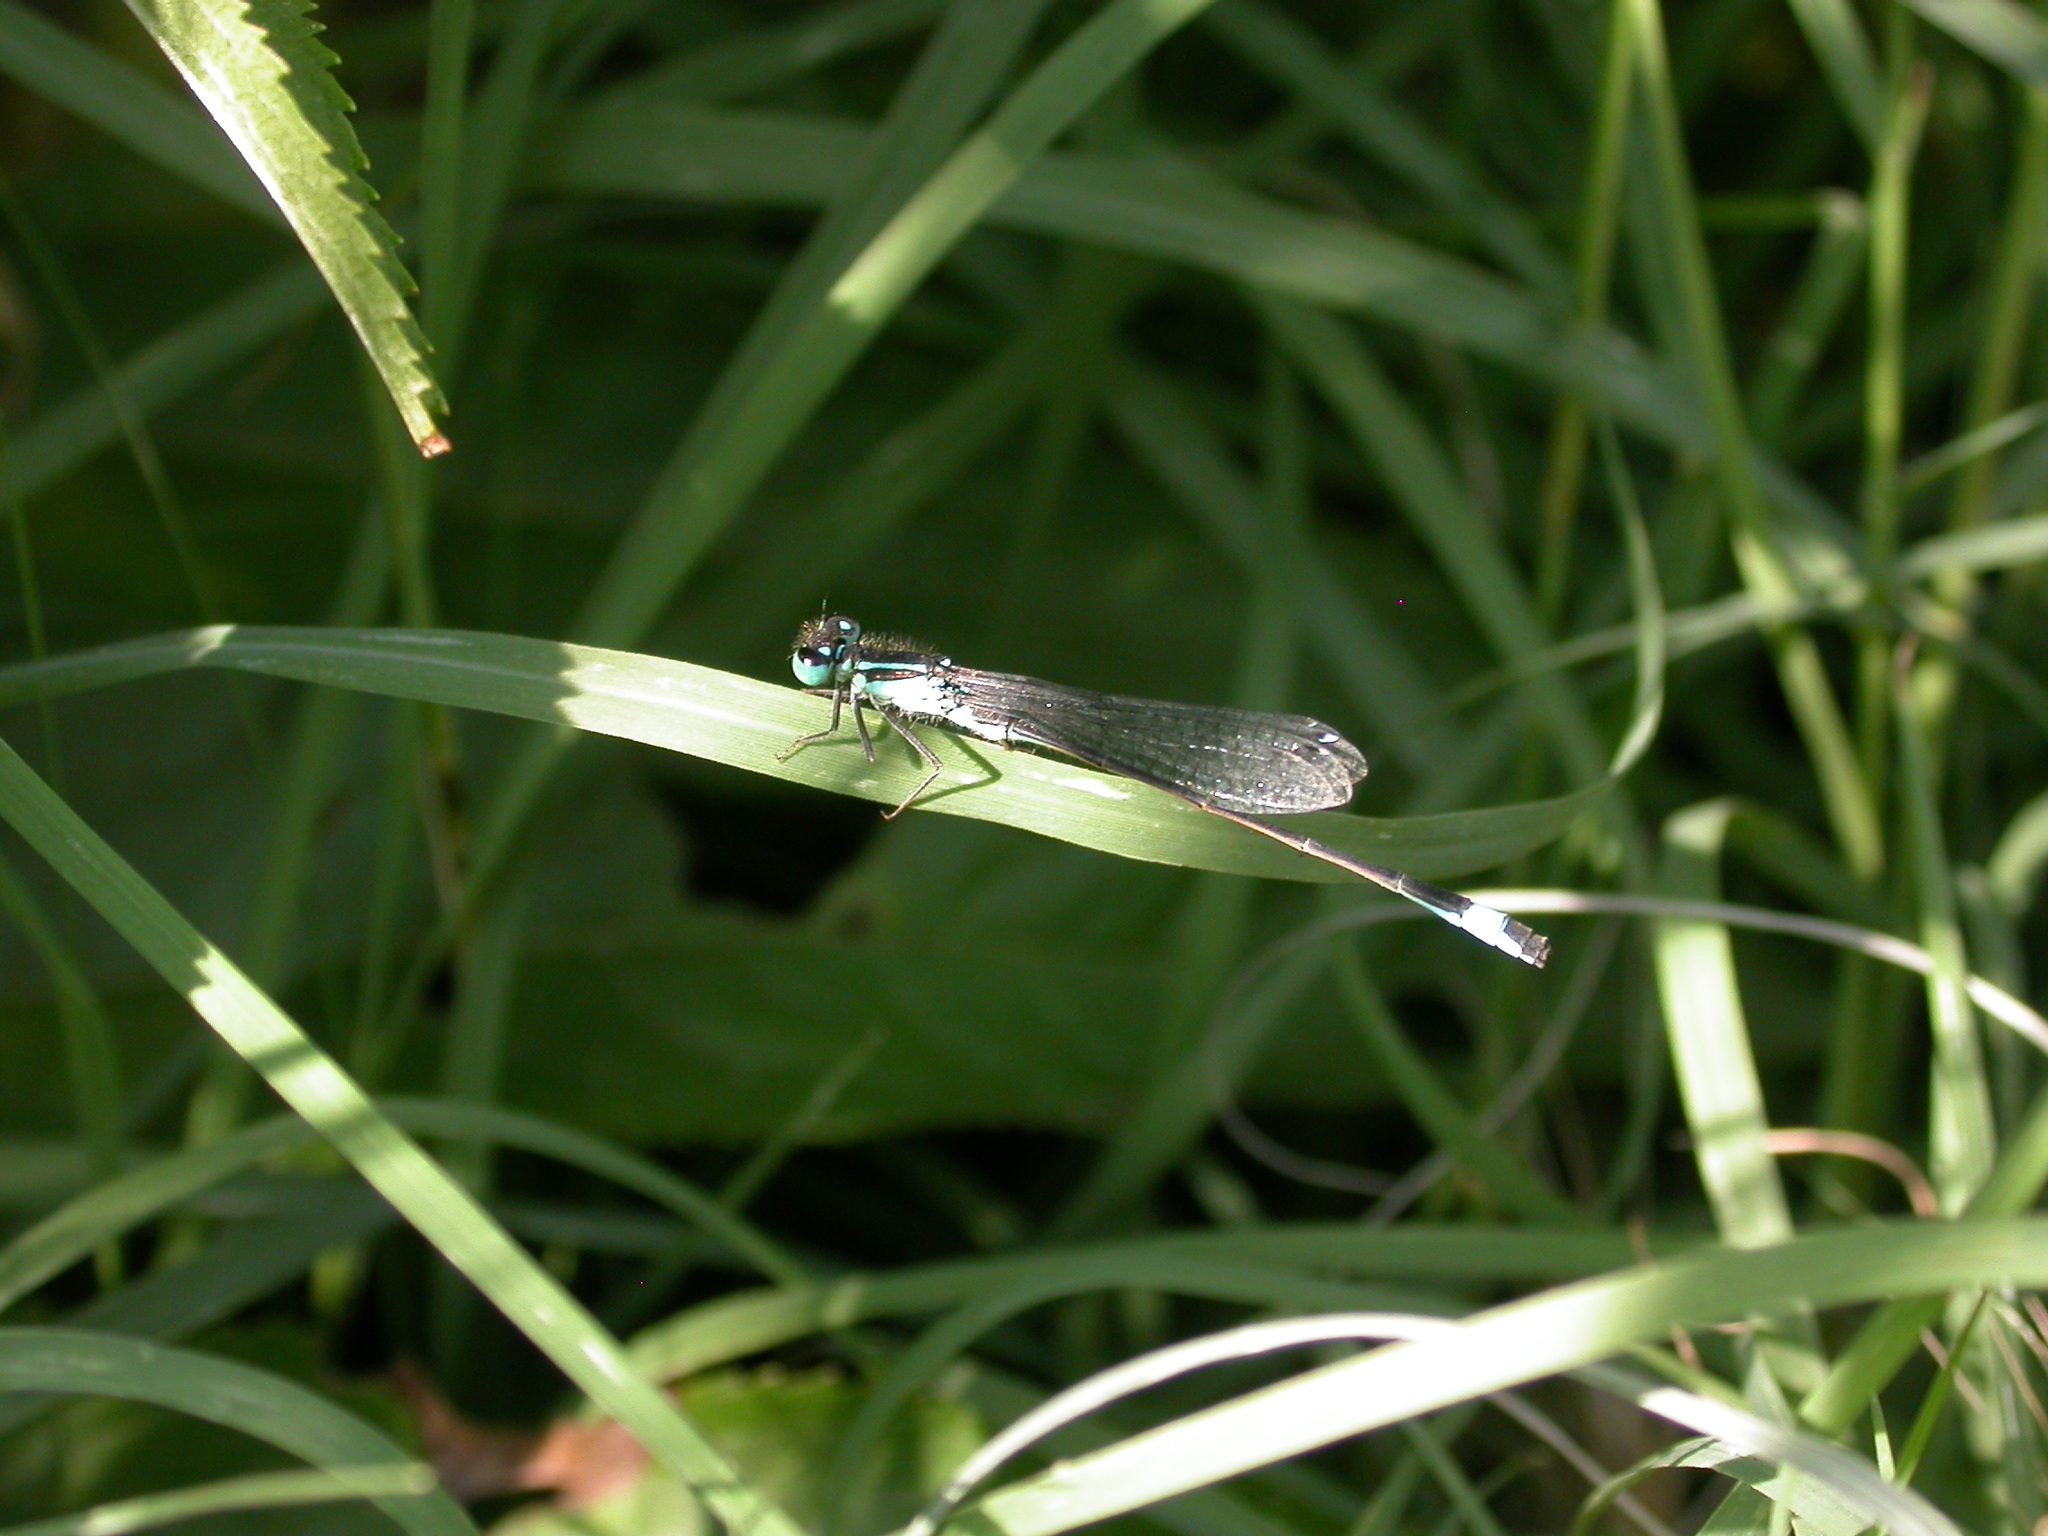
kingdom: Animalia
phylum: Arthropoda
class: Insecta
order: Odonata
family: Coenagrionidae
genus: Ischnura
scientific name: Ischnura elegans
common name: Blue-tailed damselfly
